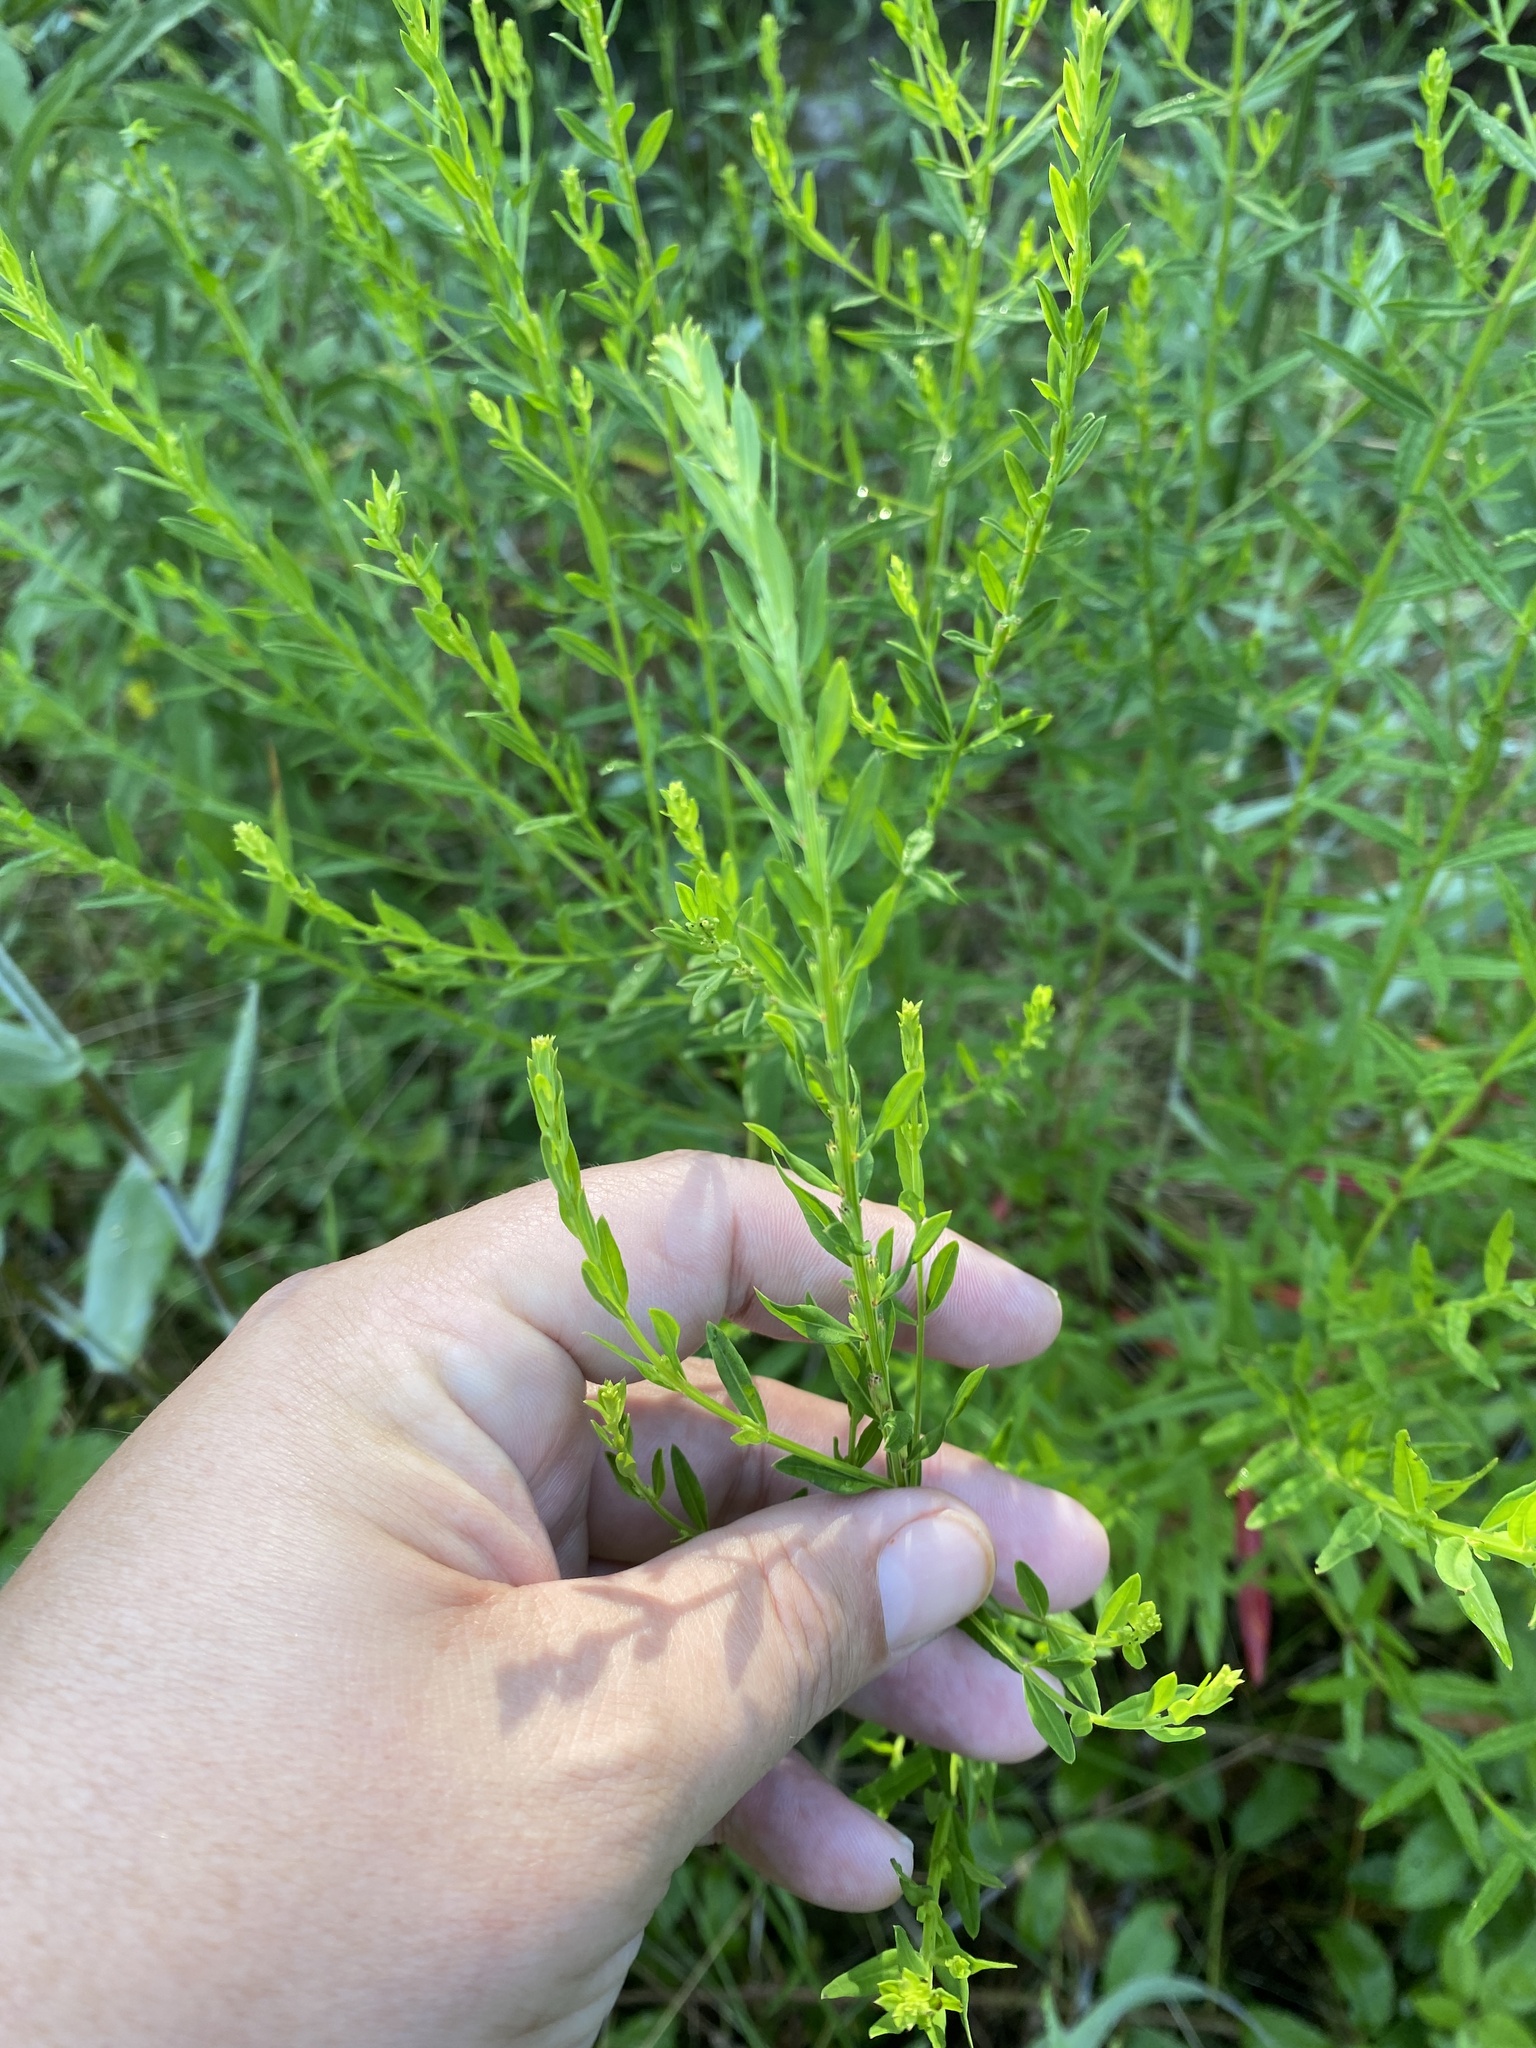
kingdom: Plantae
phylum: Tracheophyta
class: Magnoliopsida
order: Myrtales
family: Lythraceae
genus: Lythrum
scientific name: Lythrum alatum
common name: Winged loosestrife
